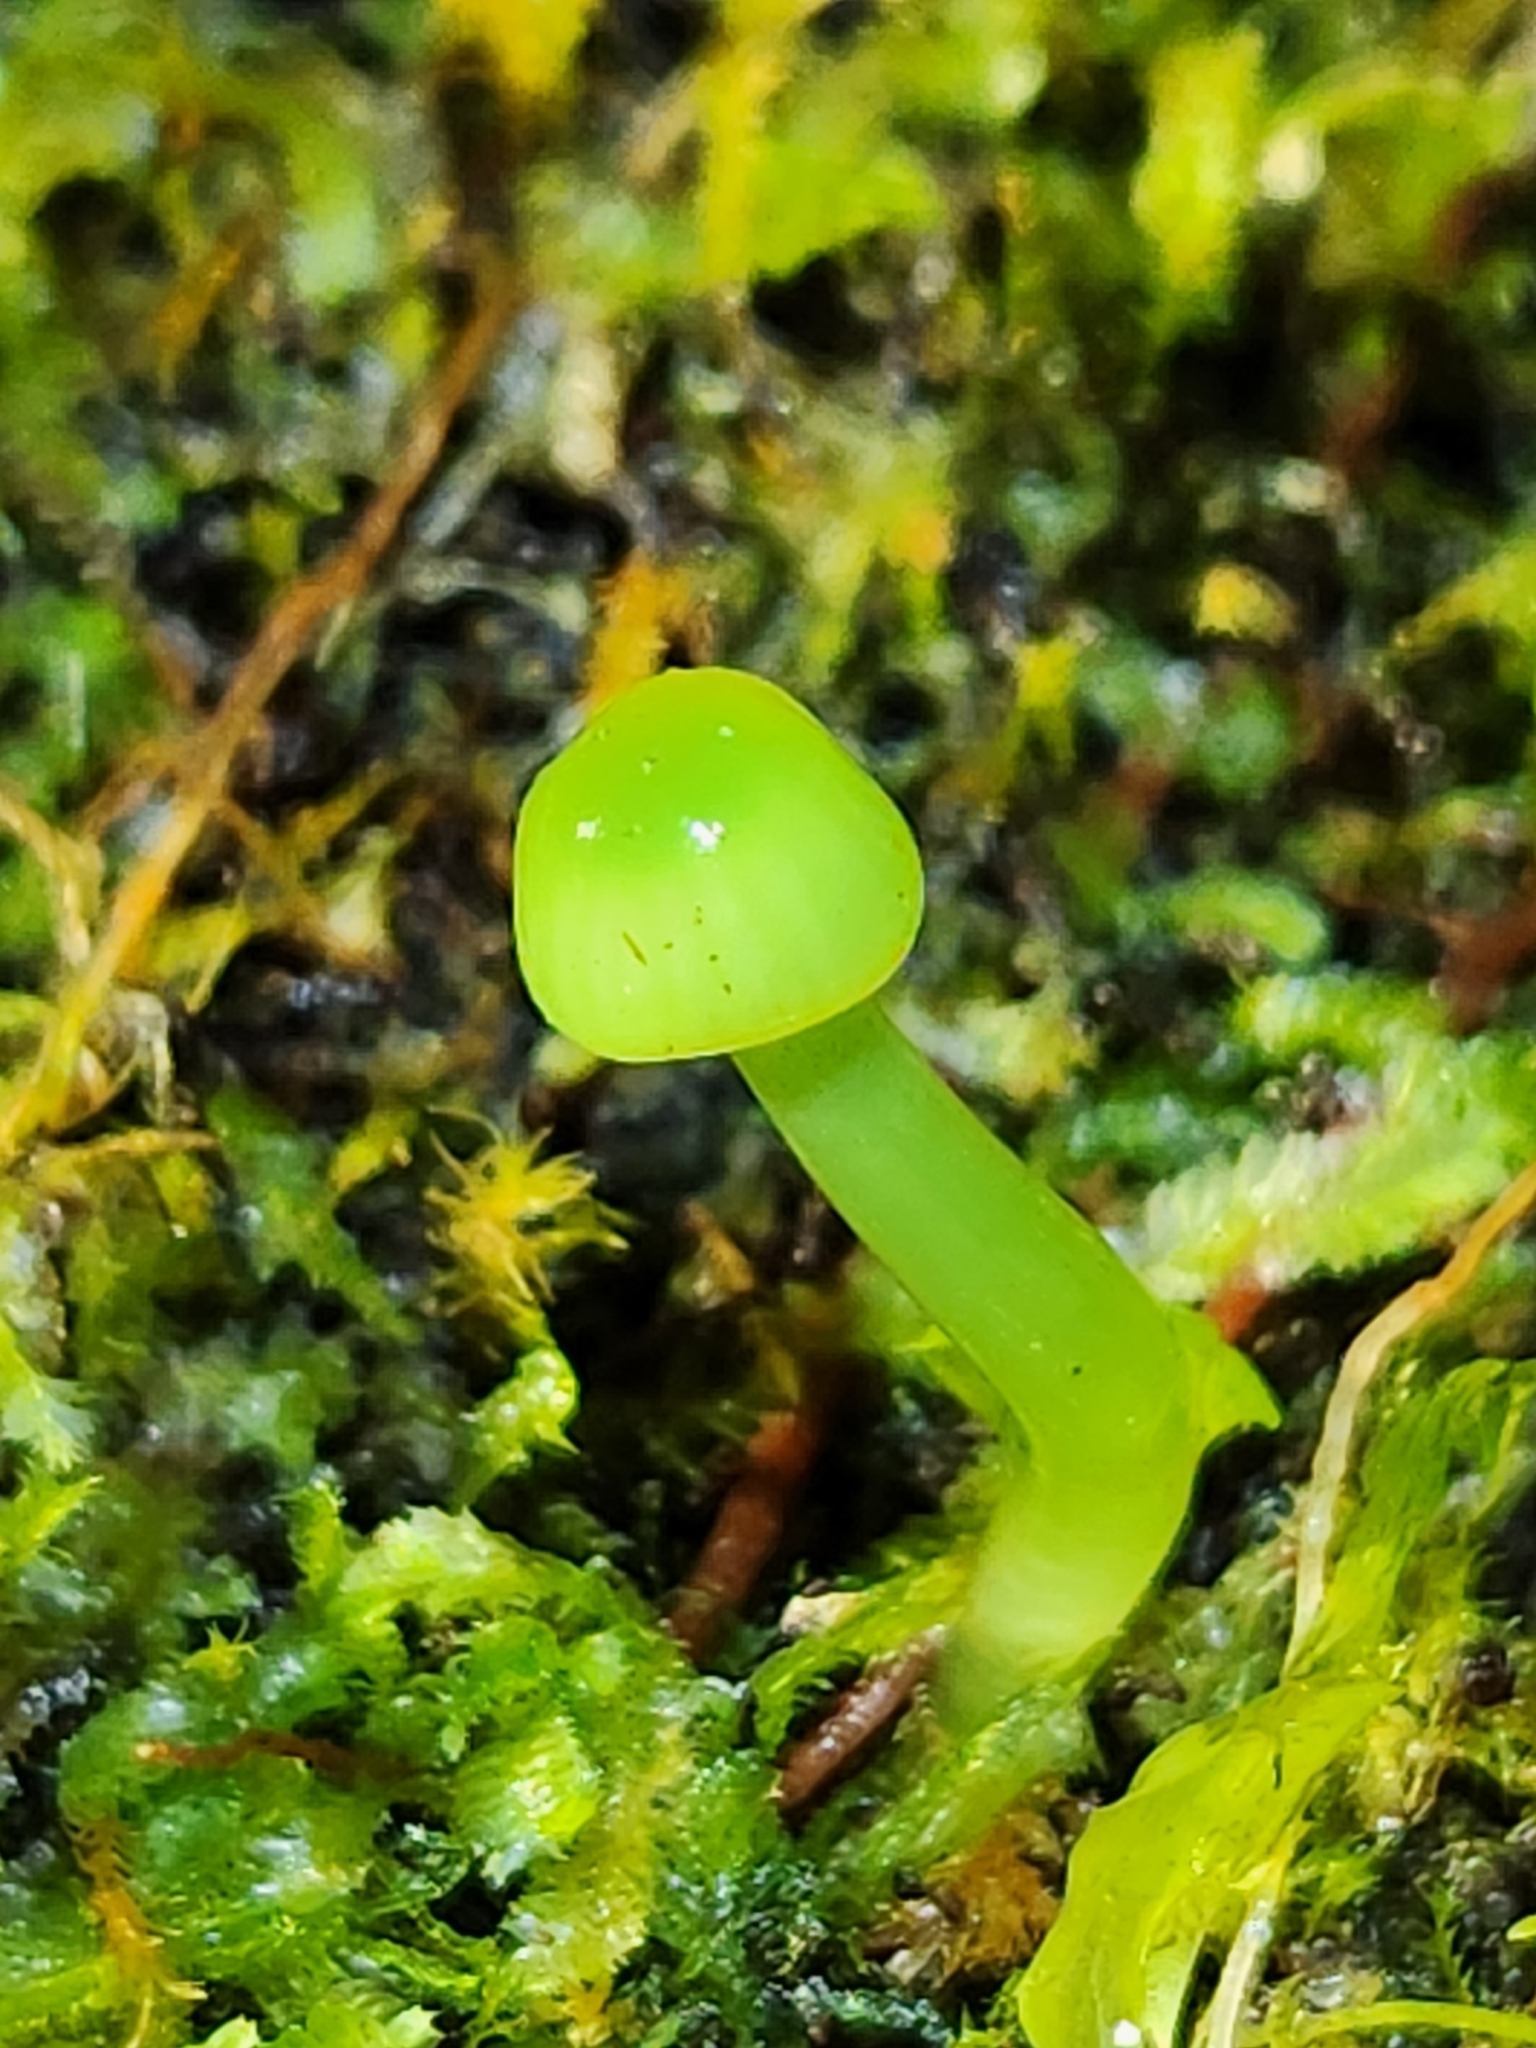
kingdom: Fungi
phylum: Basidiomycota
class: Agaricomycetes
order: Agaricales
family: Hygrophoraceae
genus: Gliophorus
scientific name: Gliophorus graminicolor
